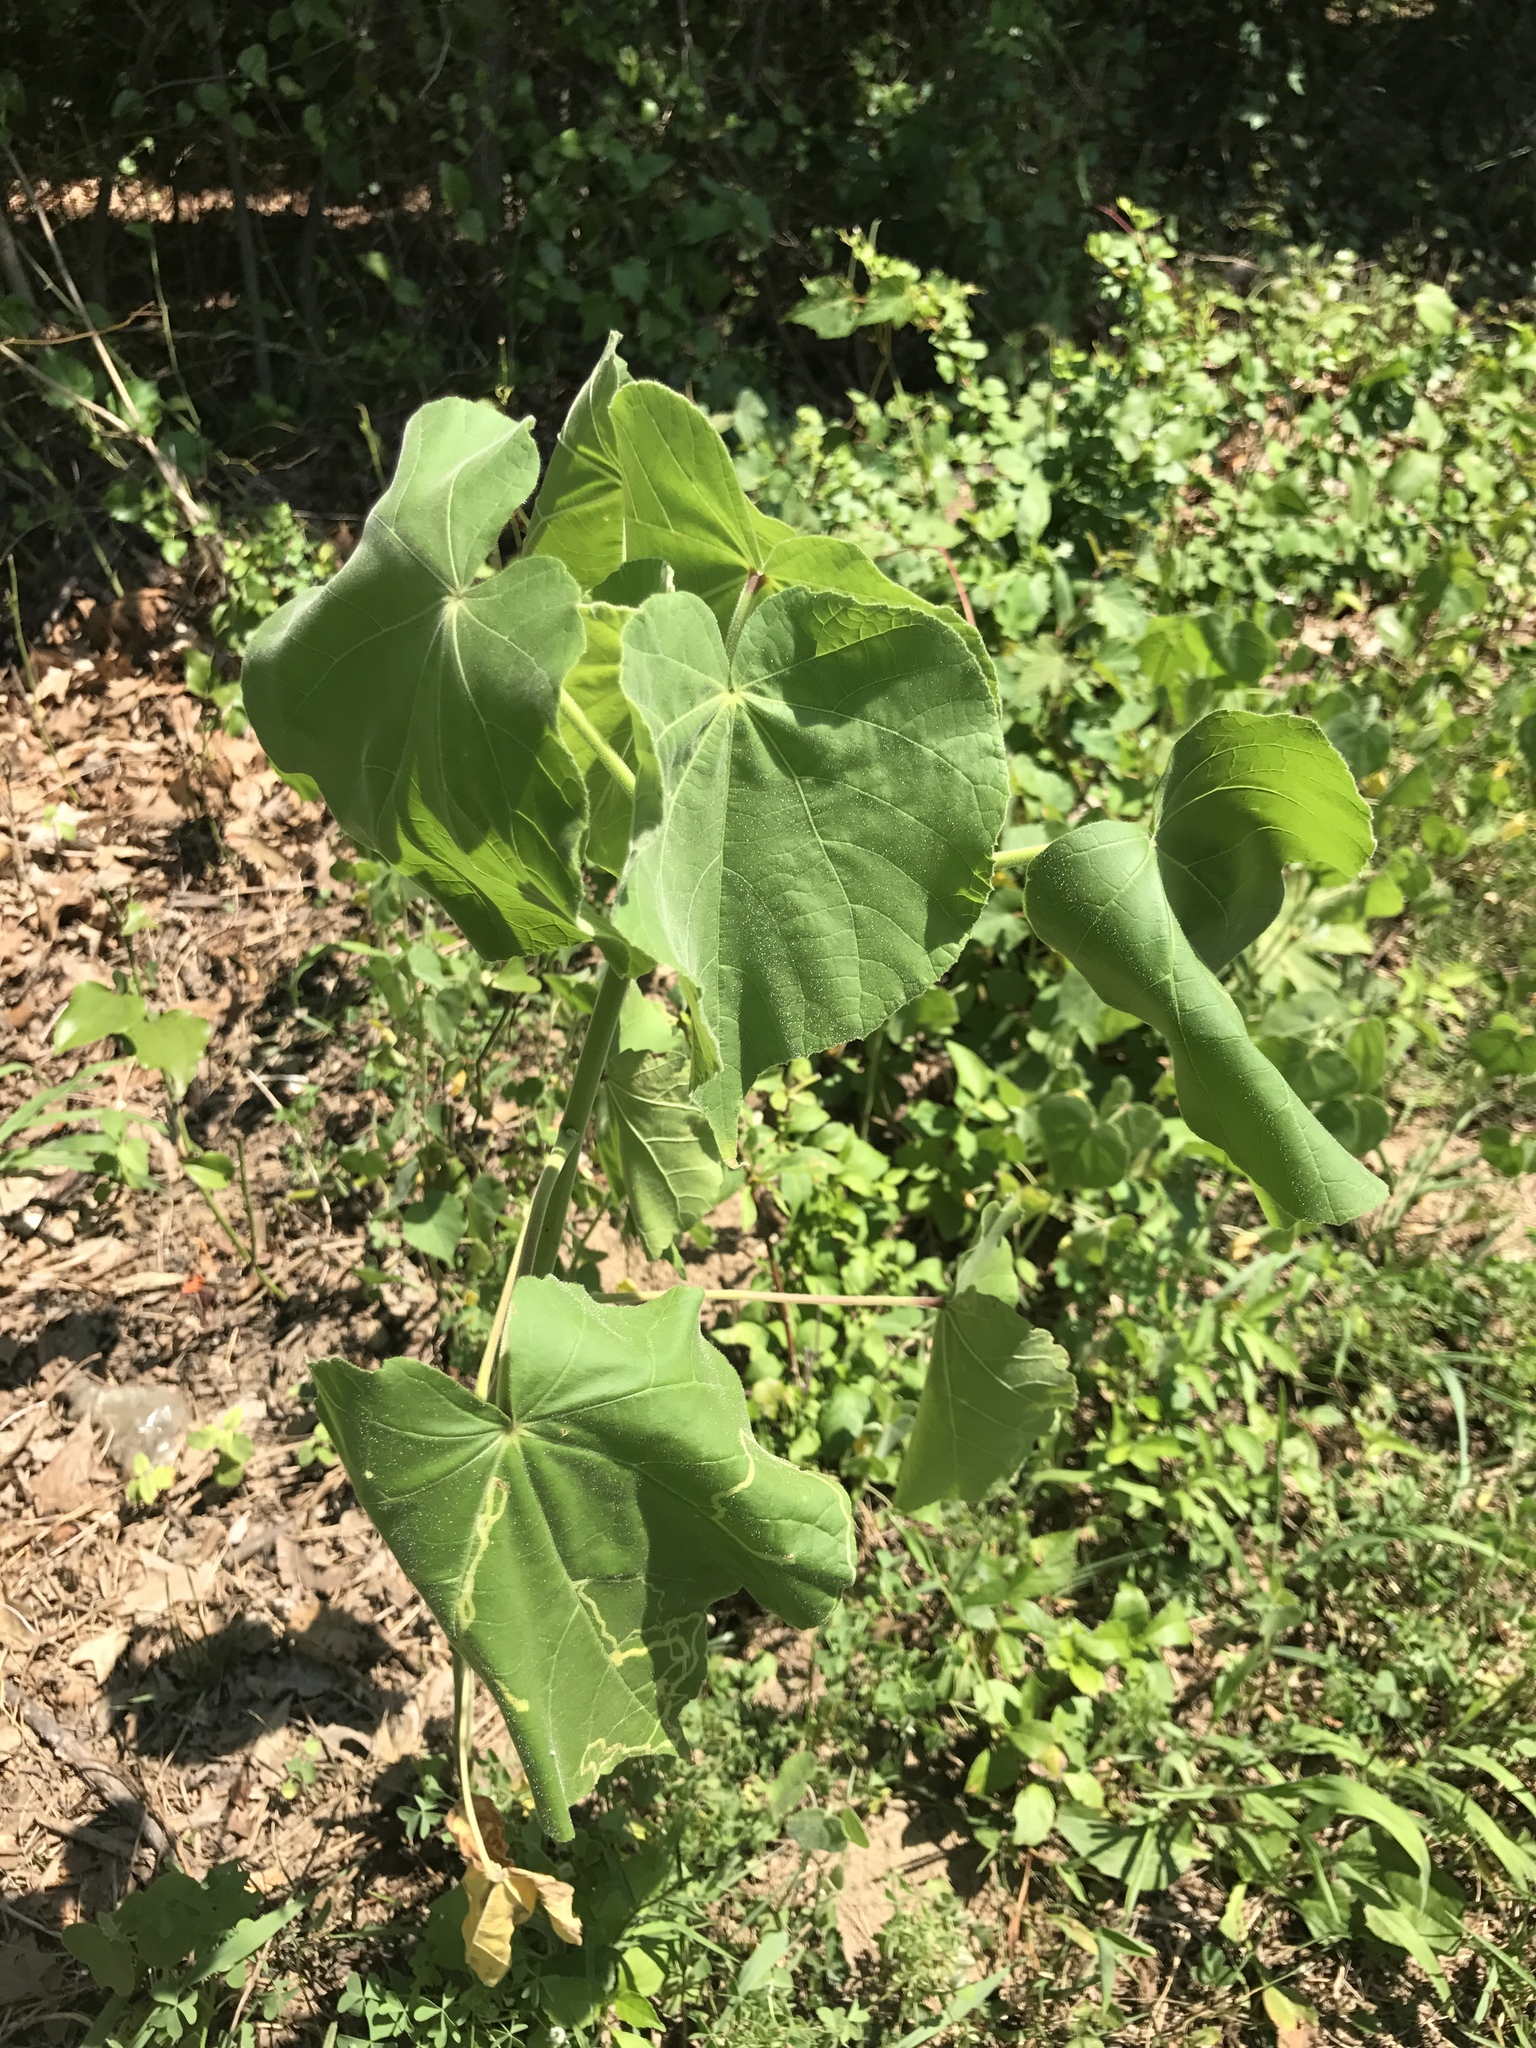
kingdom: Plantae
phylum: Tracheophyta
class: Magnoliopsida
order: Malvales
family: Malvaceae
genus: Abutilon
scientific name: Abutilon theophrasti
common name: Velvetleaf
